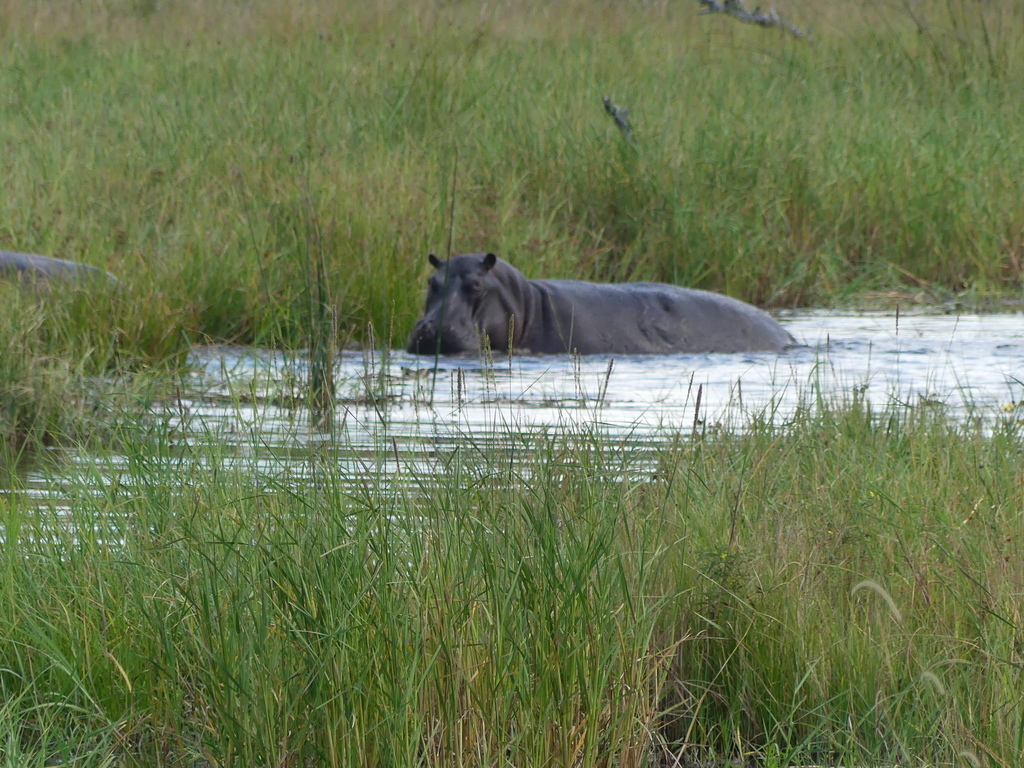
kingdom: Animalia
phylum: Chordata
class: Mammalia
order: Artiodactyla
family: Hippopotamidae
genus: Hippopotamus
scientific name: Hippopotamus amphibius
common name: Common hippopotamus
